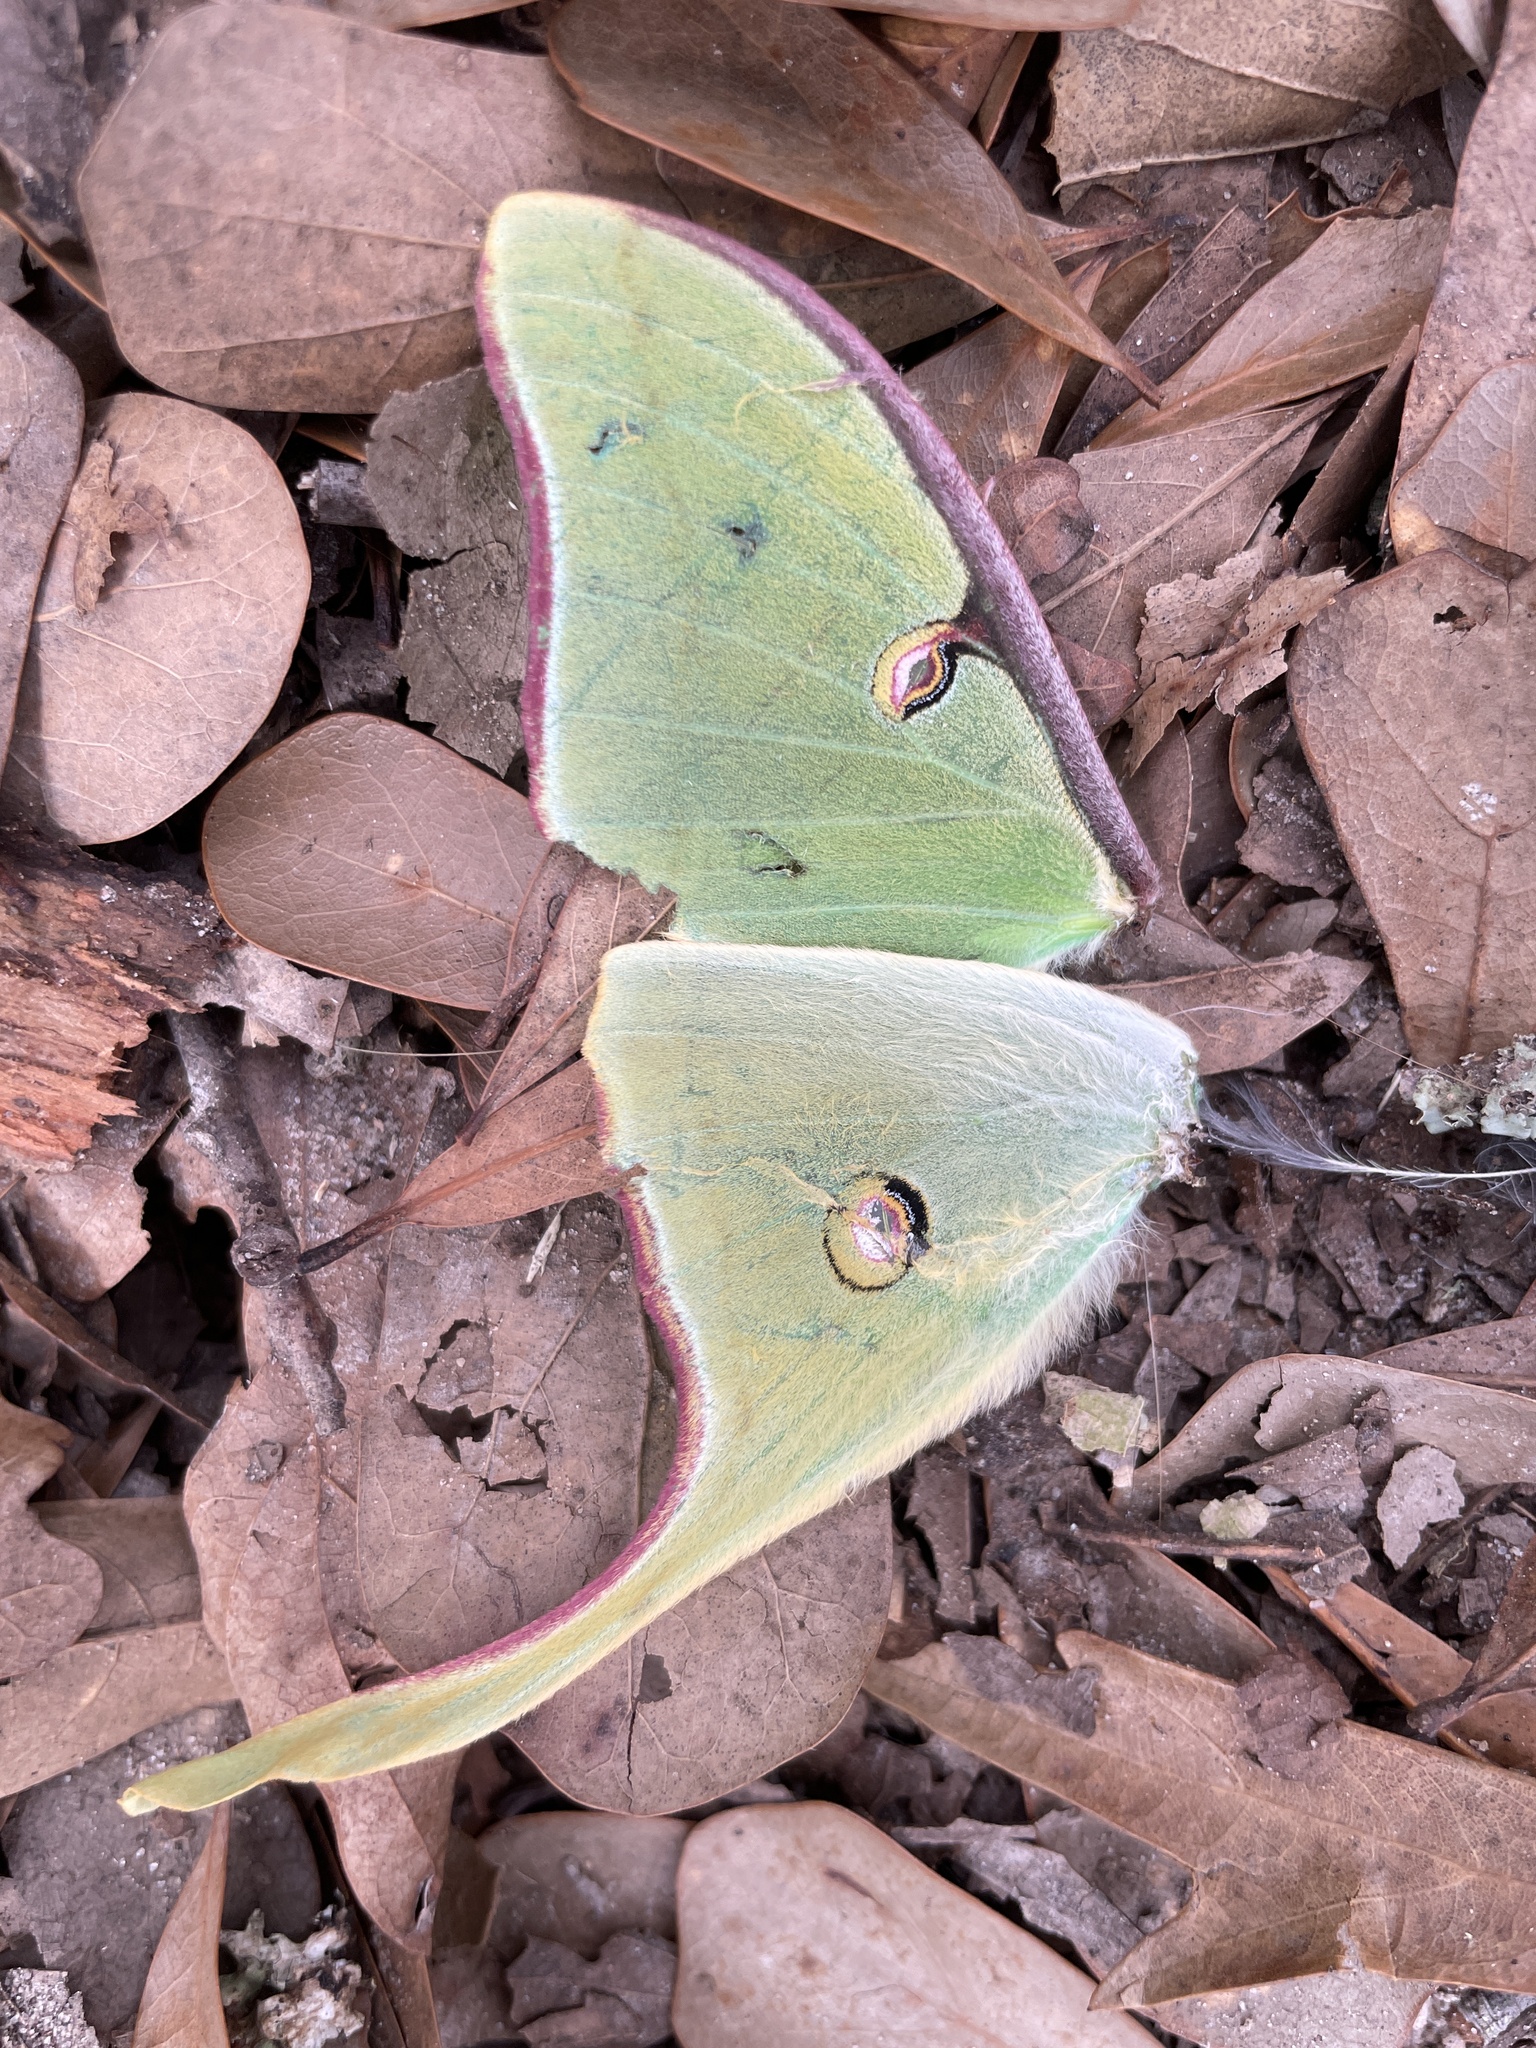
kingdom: Animalia
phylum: Arthropoda
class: Insecta
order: Lepidoptera
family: Saturniidae
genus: Actias
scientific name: Actias luna
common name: Luna moth
